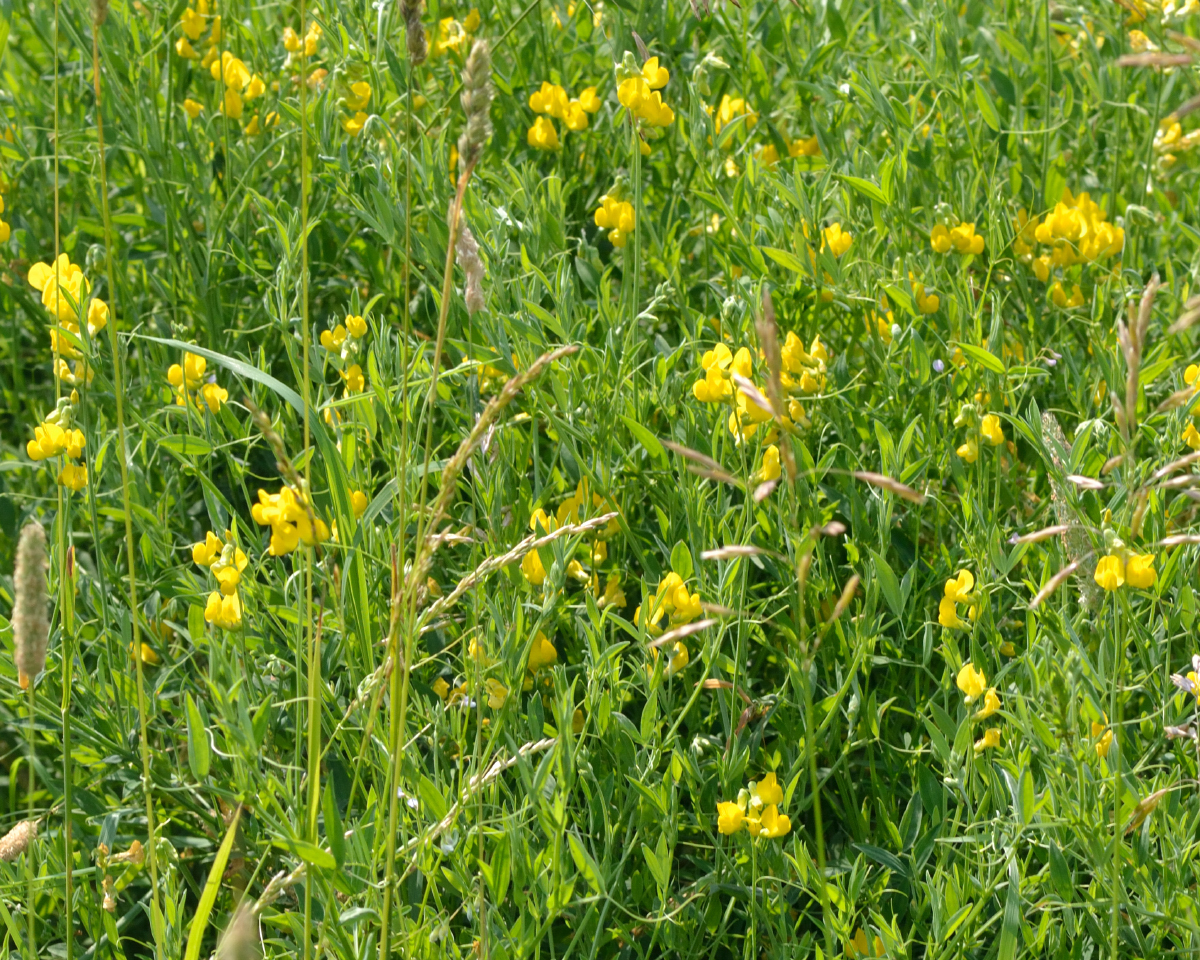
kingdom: Plantae
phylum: Tracheophyta
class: Magnoliopsida
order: Fabales
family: Fabaceae
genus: Lathyrus
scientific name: Lathyrus pratensis
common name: Meadow vetchling
